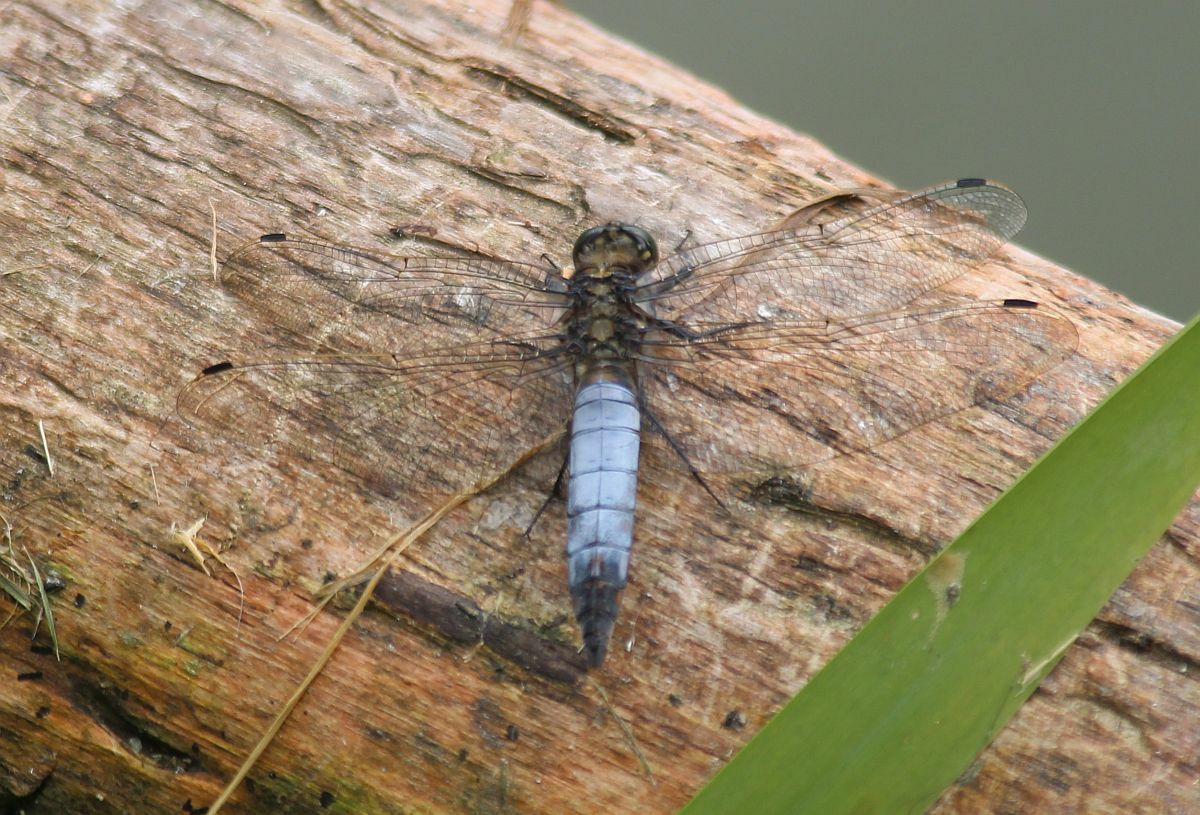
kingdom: Animalia
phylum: Arthropoda
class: Insecta
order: Odonata
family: Libellulidae
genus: Orthetrum
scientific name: Orthetrum cancellatum
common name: Black-tailed skimmer
